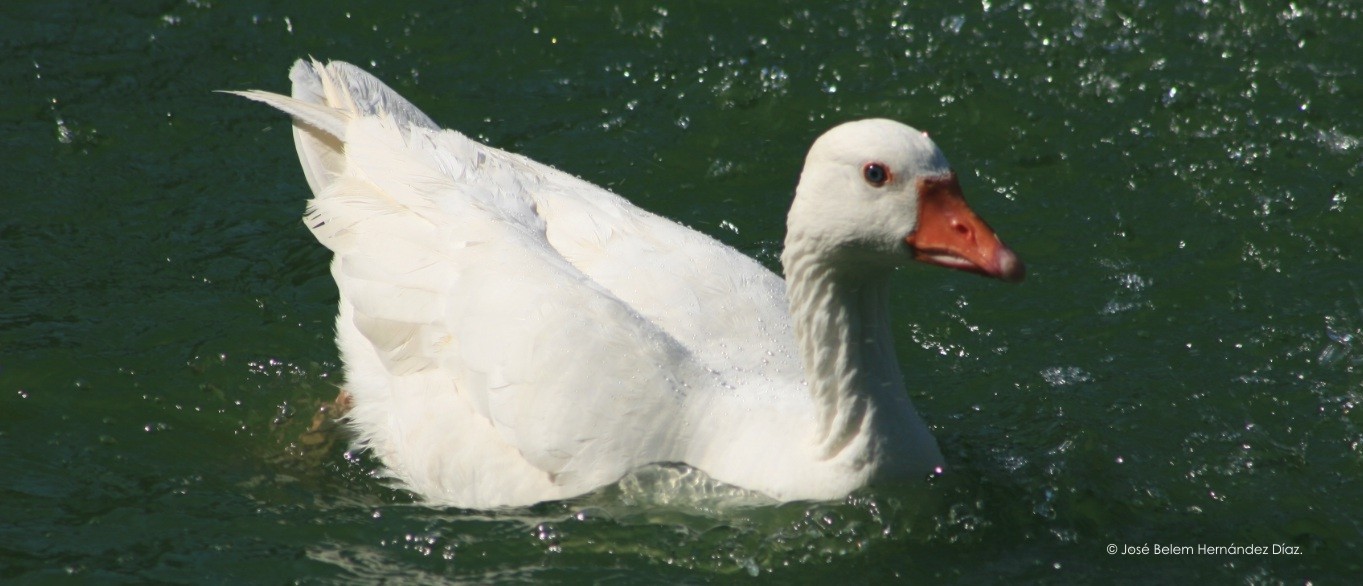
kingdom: Animalia
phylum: Chordata
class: Aves
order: Anseriformes
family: Anatidae
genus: Anser
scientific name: Anser anser
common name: Greylag goose
